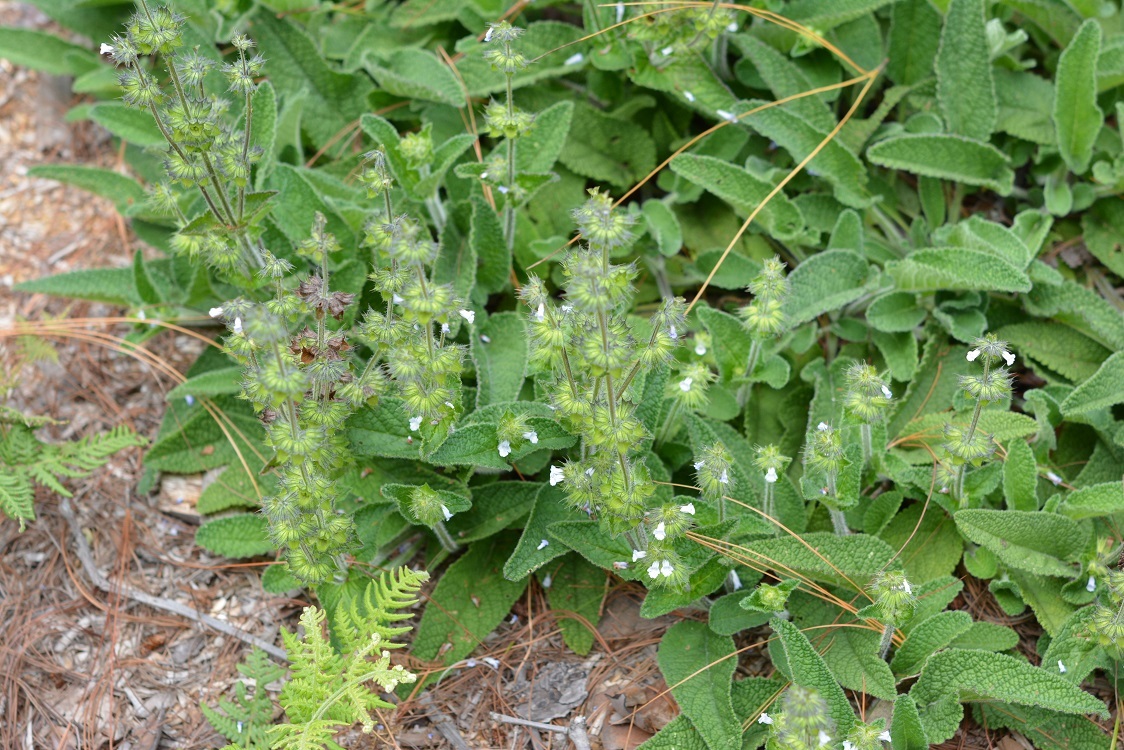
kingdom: Plantae
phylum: Tracheophyta
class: Magnoliopsida
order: Lamiales
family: Lamiaceae
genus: Lepechinia
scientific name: Lepechinia schiedeana
